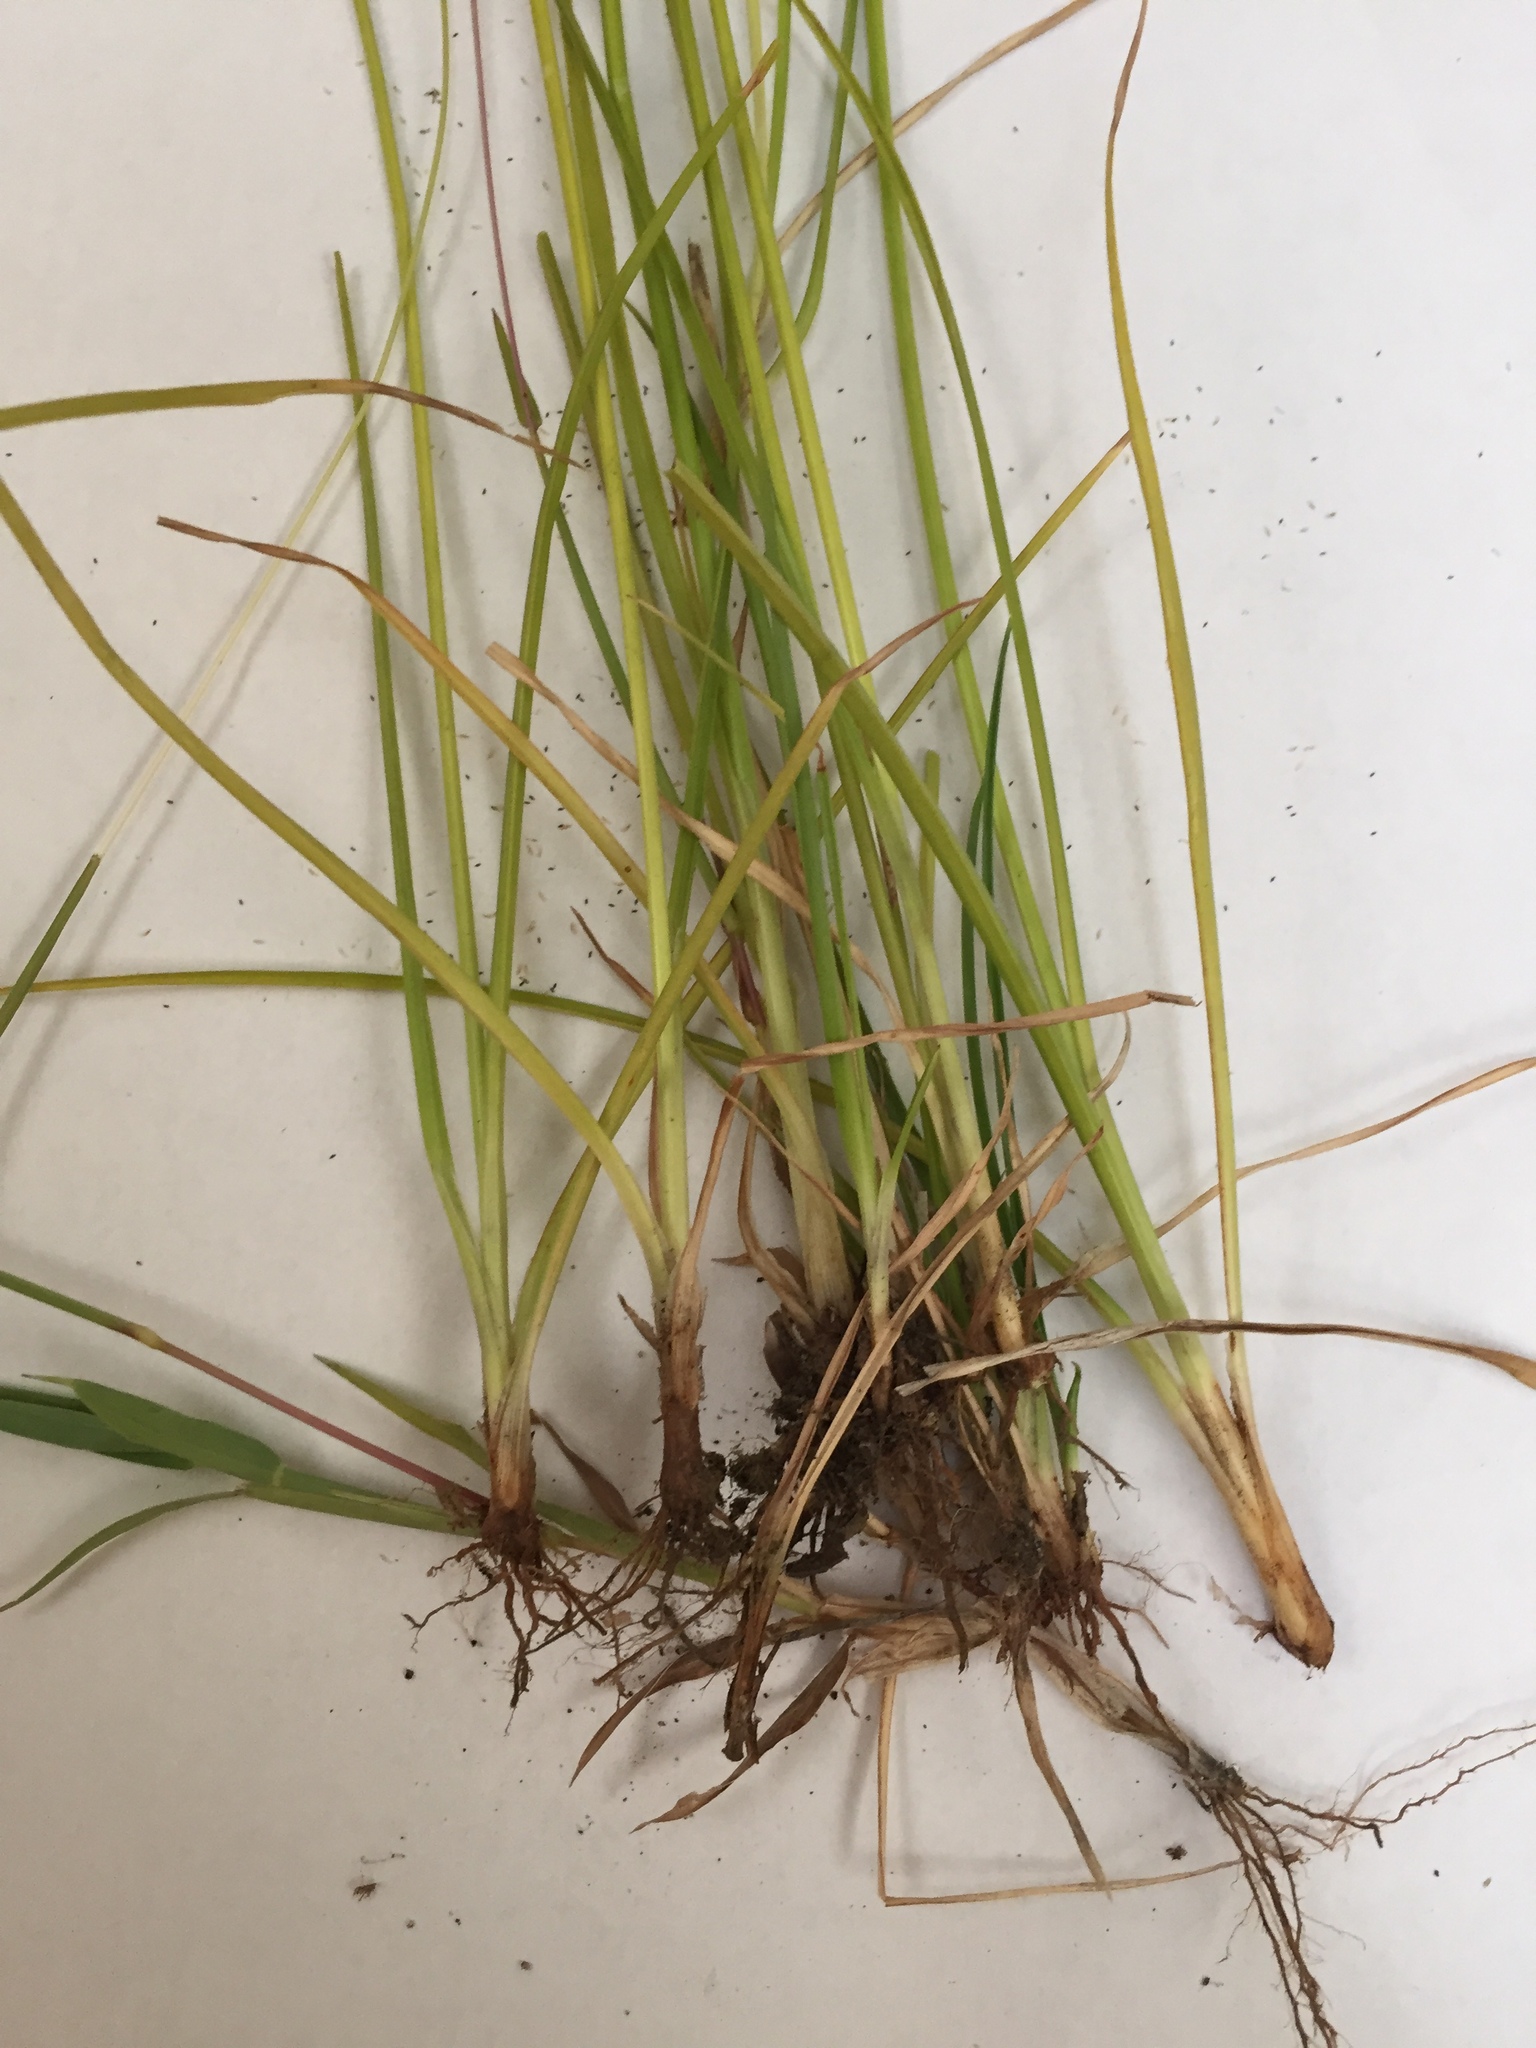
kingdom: Plantae
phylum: Tracheophyta
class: Liliopsida
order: Poales
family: Cyperaceae
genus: Cyperus
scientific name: Cyperus surinamensis
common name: Tropical flat sedge
